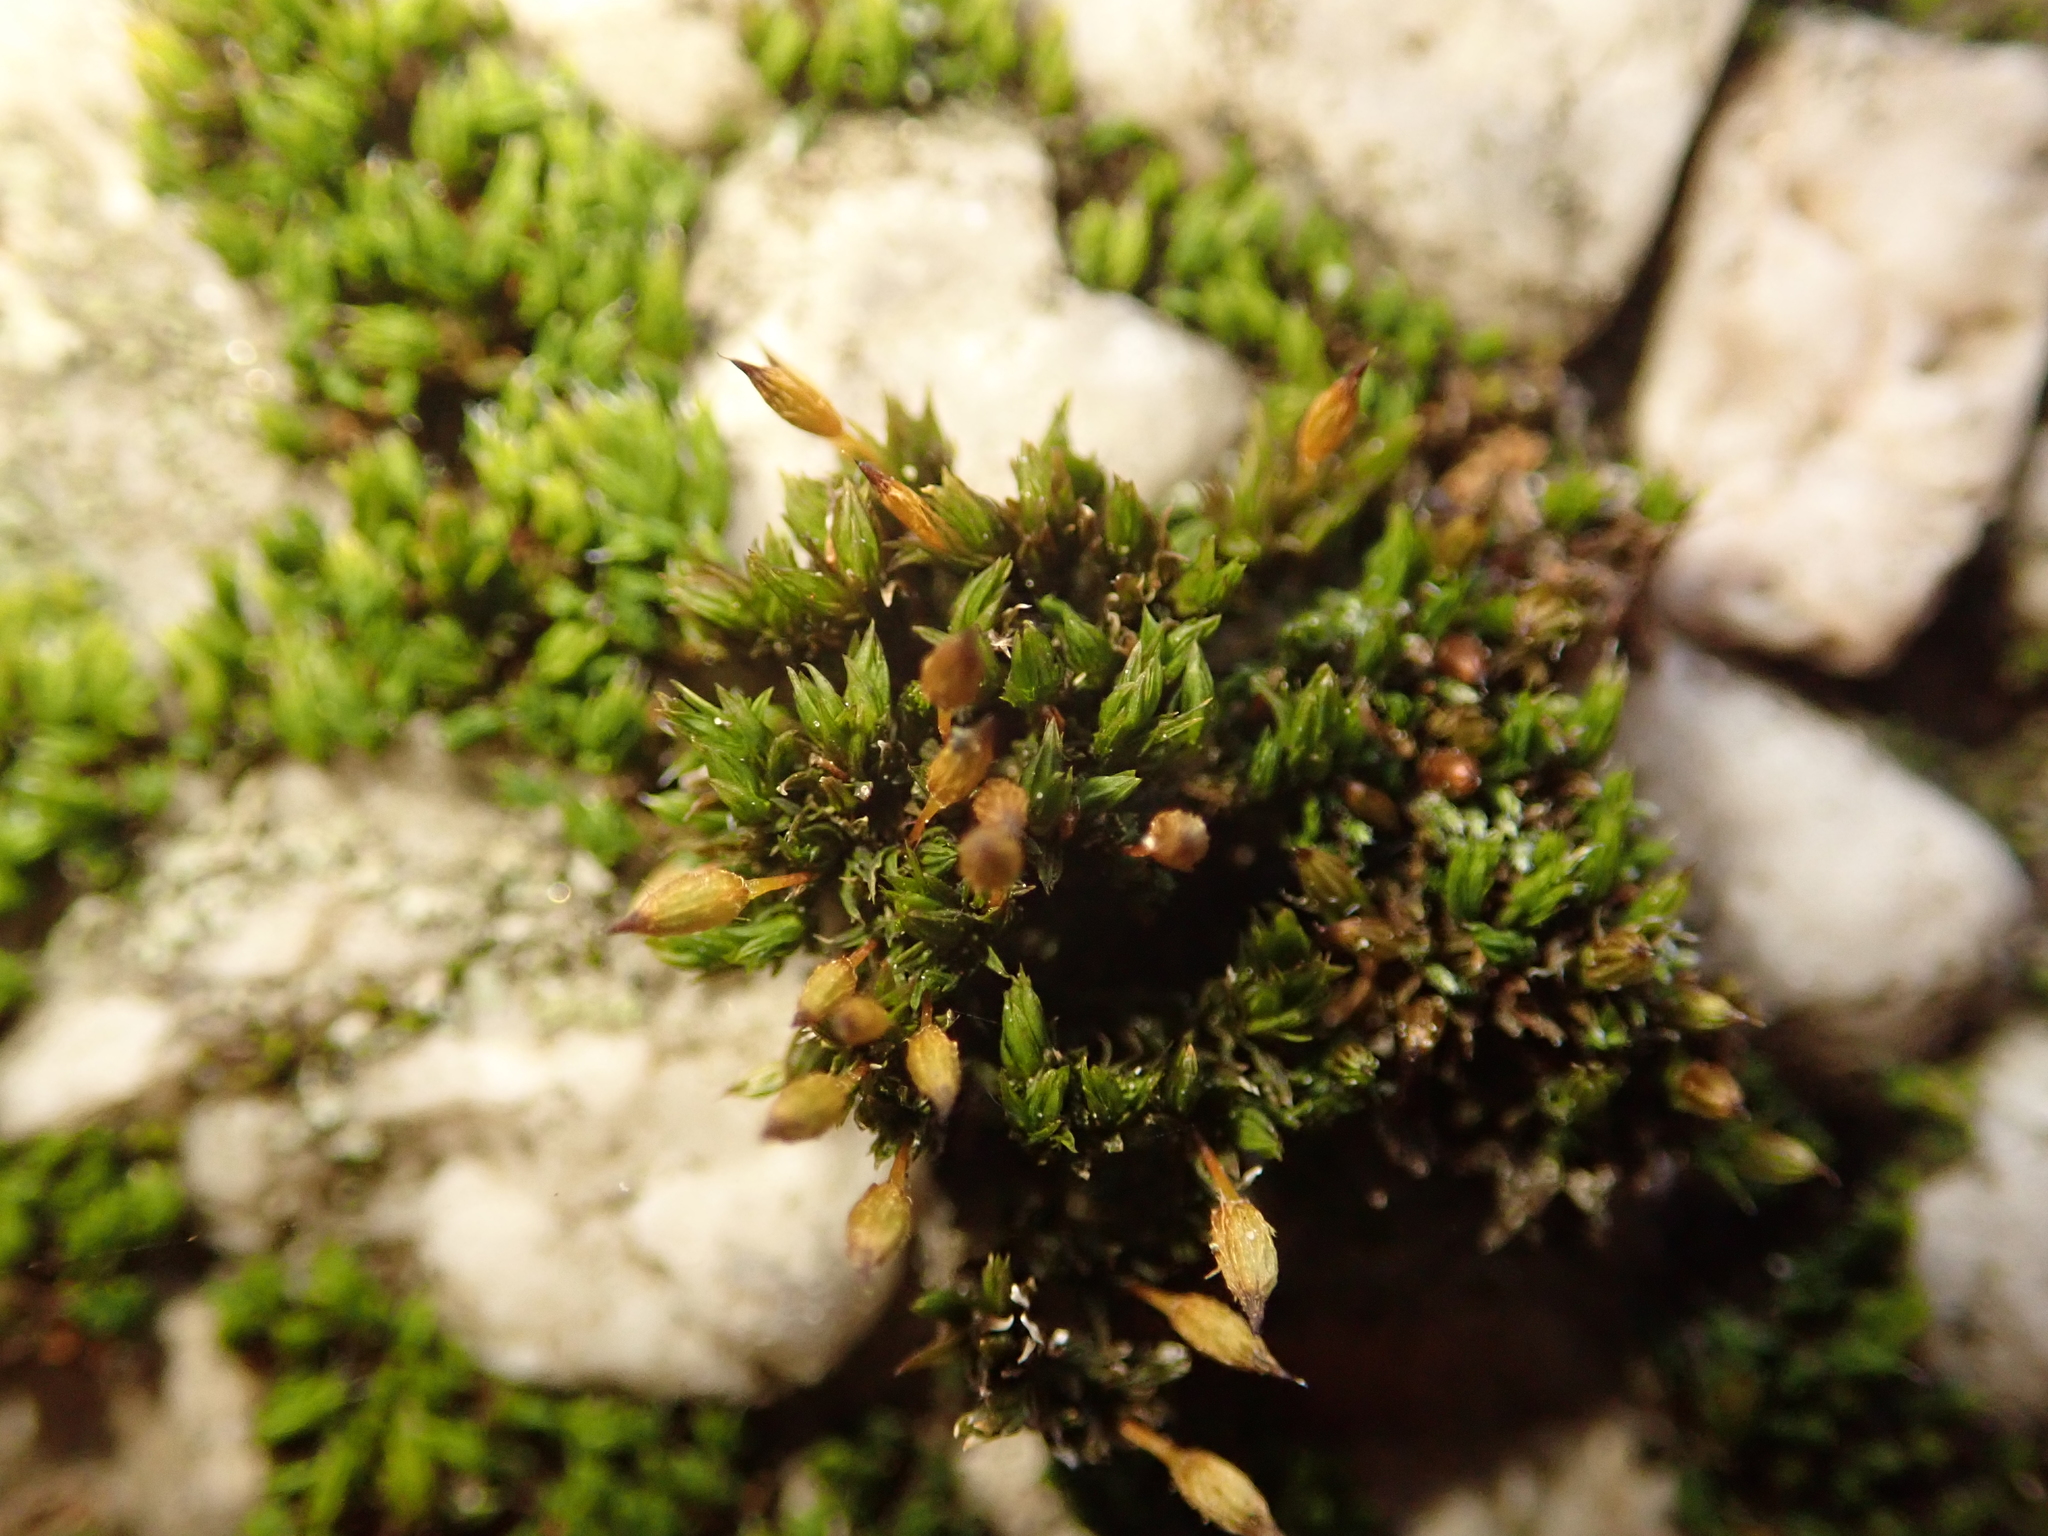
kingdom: Plantae
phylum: Bryophyta
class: Bryopsida
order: Orthotrichales
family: Orthotrichaceae
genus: Orthotrichum
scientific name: Orthotrichum anomalum
